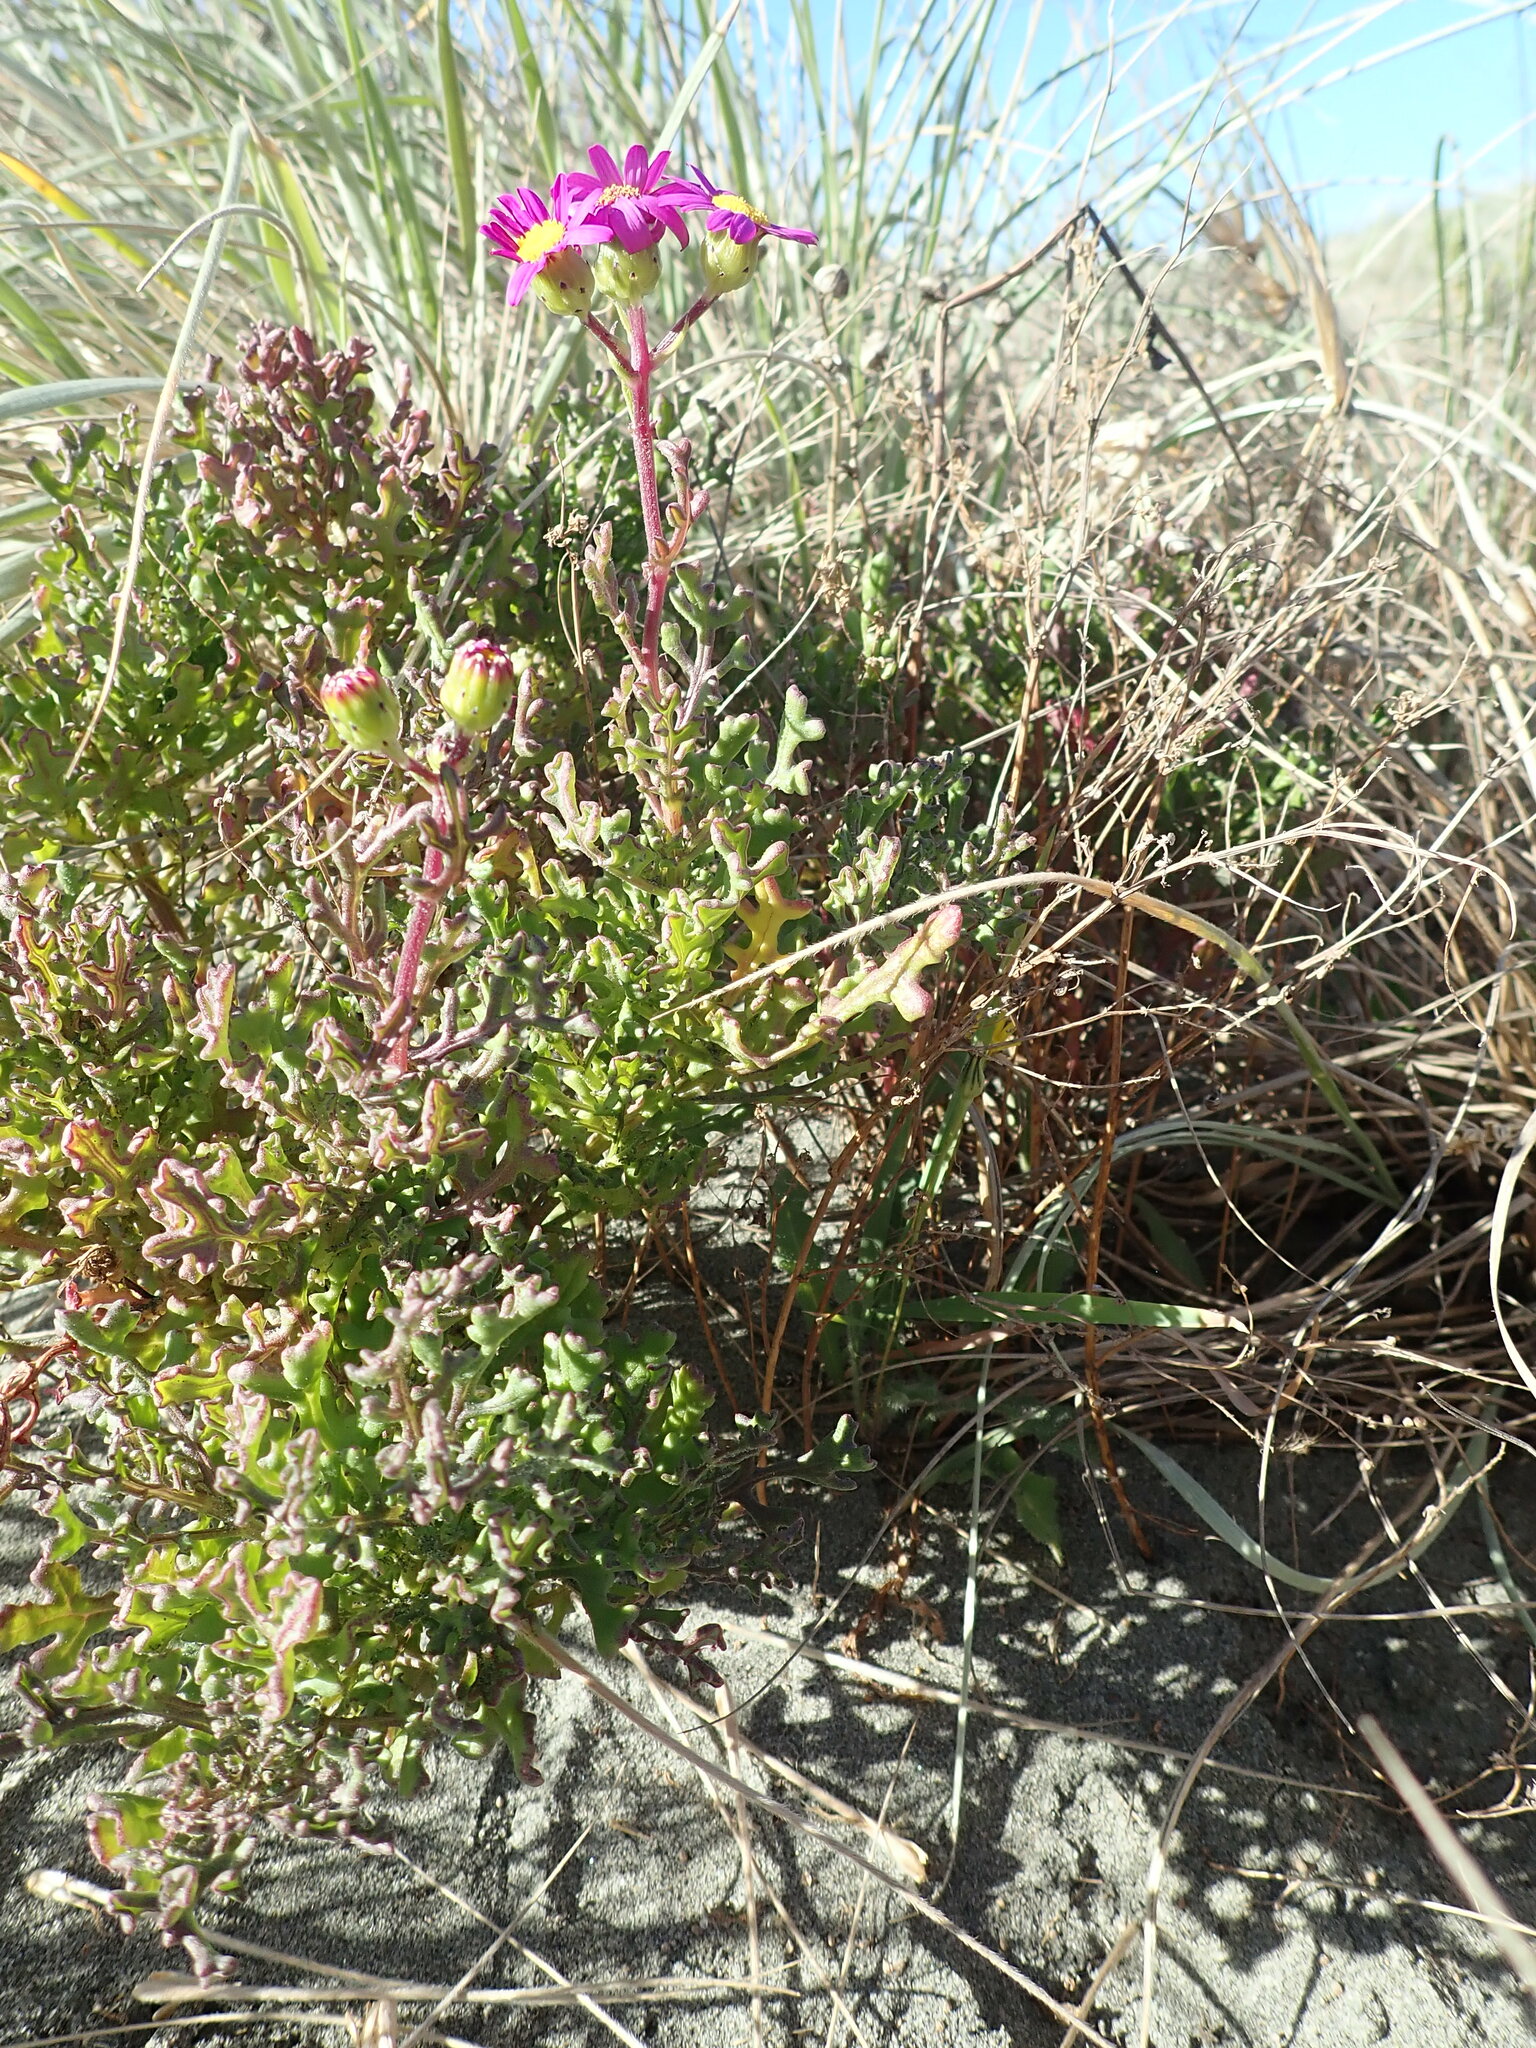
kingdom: Plantae
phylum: Tracheophyta
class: Magnoliopsida
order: Asterales
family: Asteraceae
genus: Senecio
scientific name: Senecio elegans
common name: Purple groundsel
